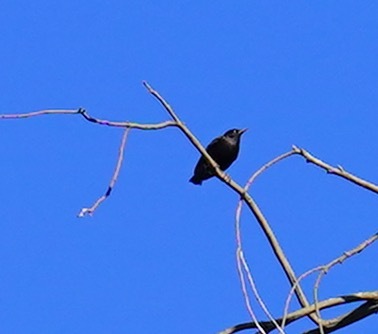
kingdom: Animalia
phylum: Chordata
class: Aves
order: Passeriformes
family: Sturnidae
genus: Sturnus
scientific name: Sturnus vulgaris
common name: Common starling
